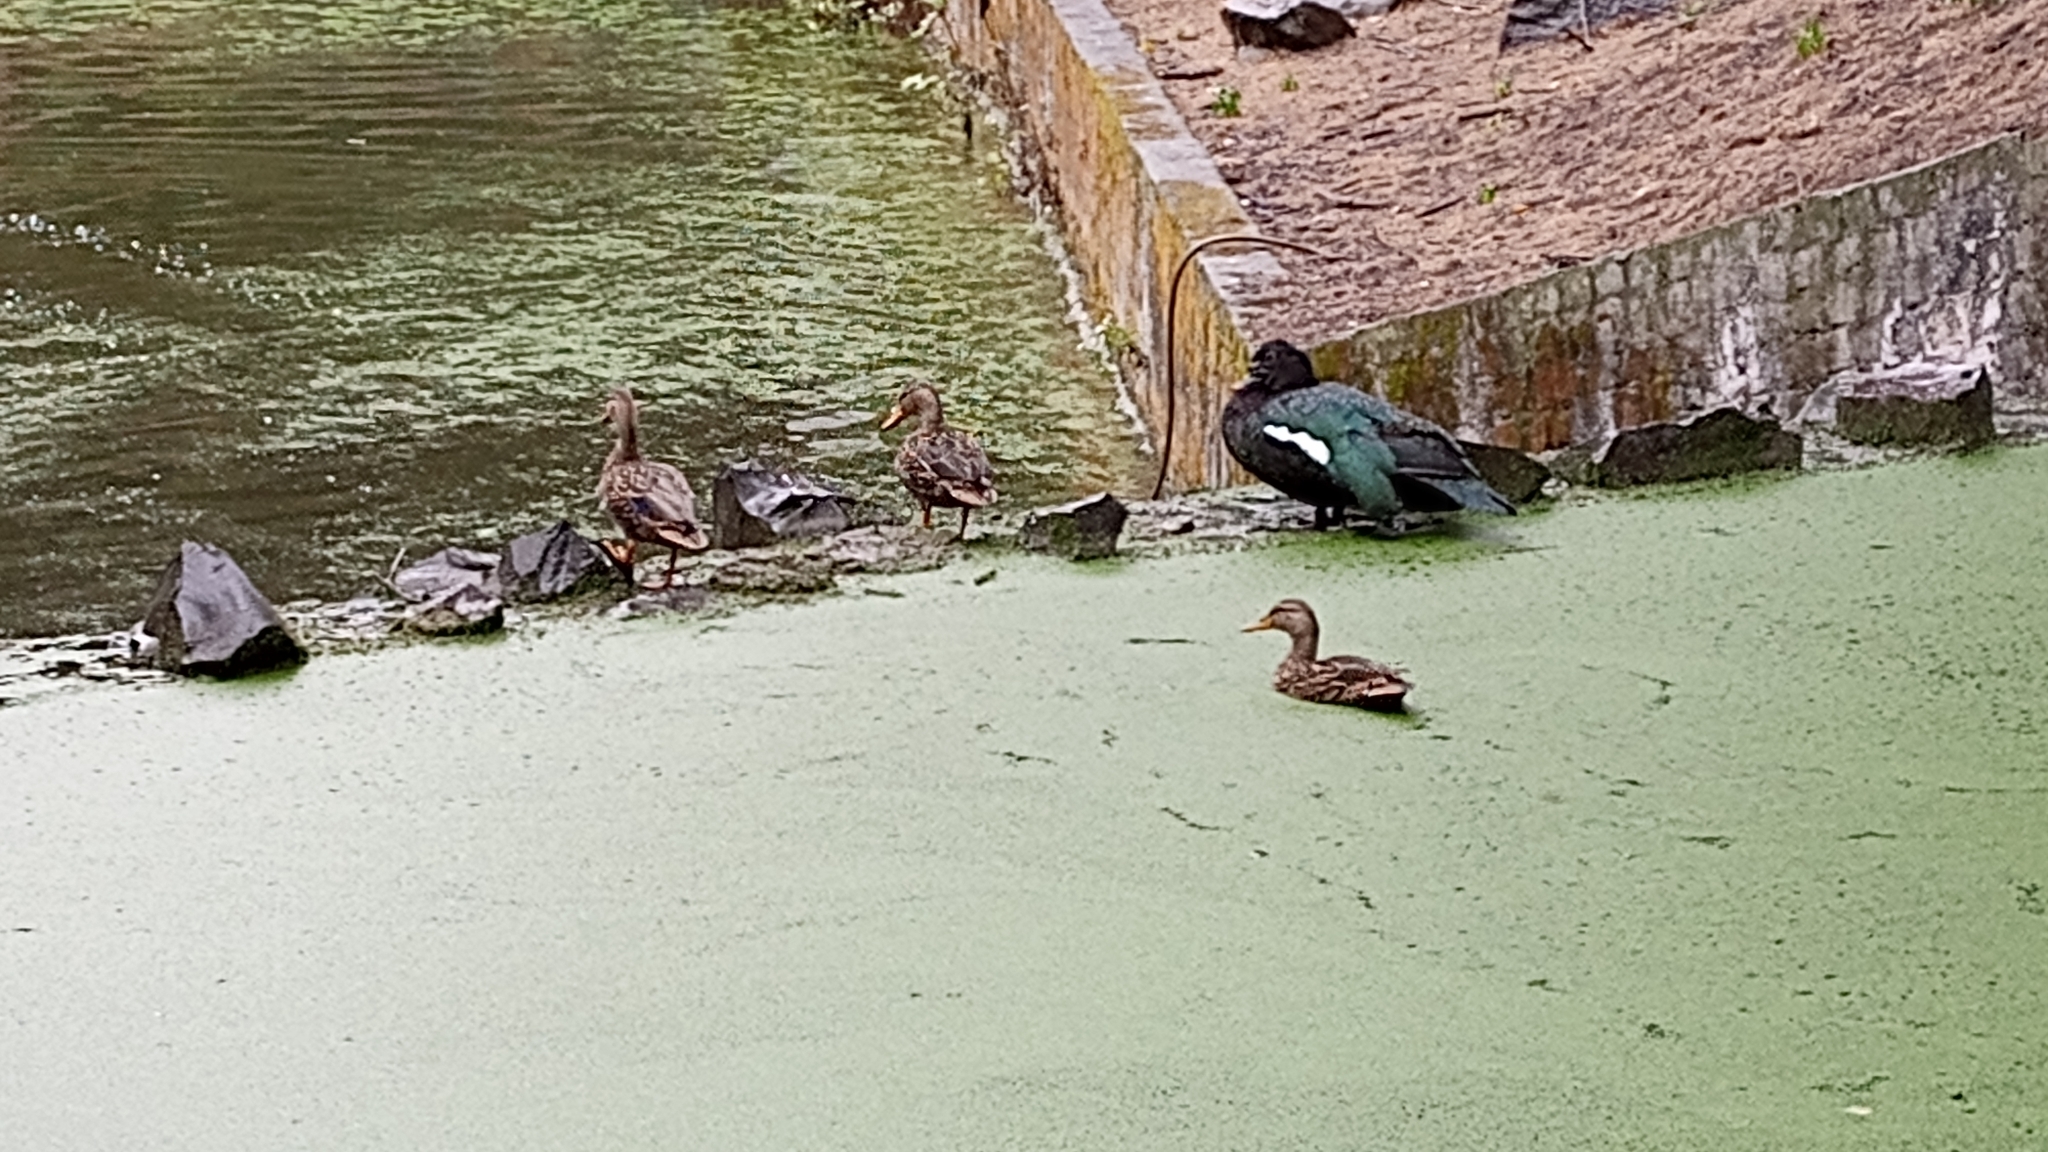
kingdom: Animalia
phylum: Chordata
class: Aves
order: Anseriformes
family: Anatidae
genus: Anas
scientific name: Anas diazi
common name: Mexican duck
